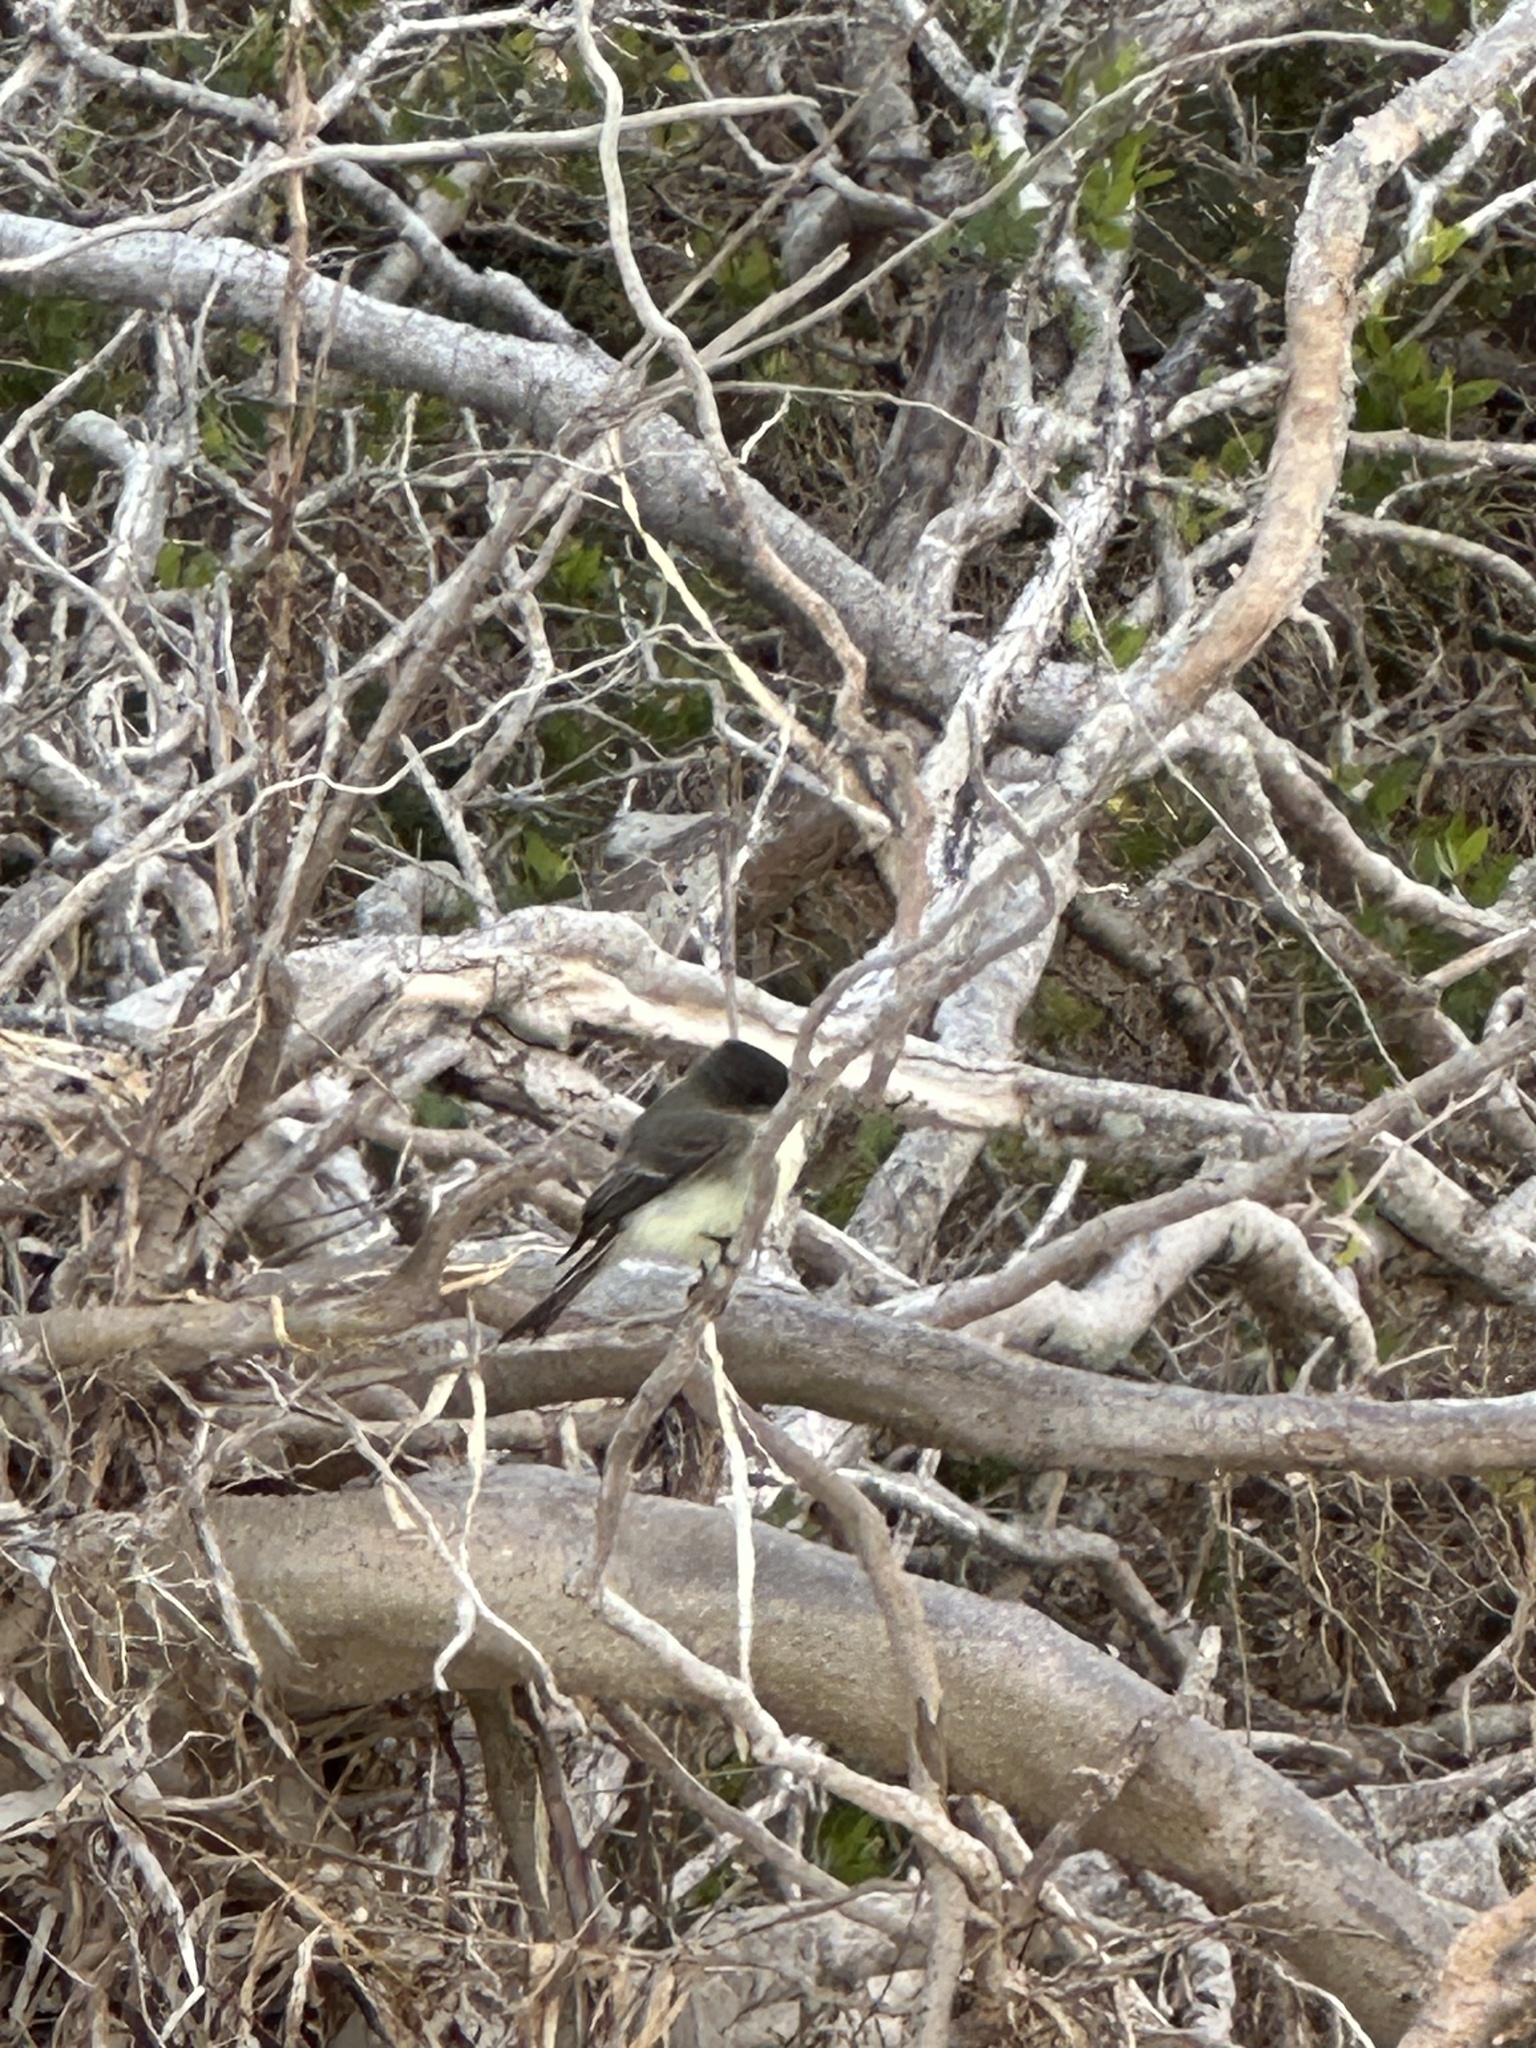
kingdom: Animalia
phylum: Chordata
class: Aves
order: Passeriformes
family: Tyrannidae
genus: Sayornis
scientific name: Sayornis phoebe
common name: Eastern phoebe
